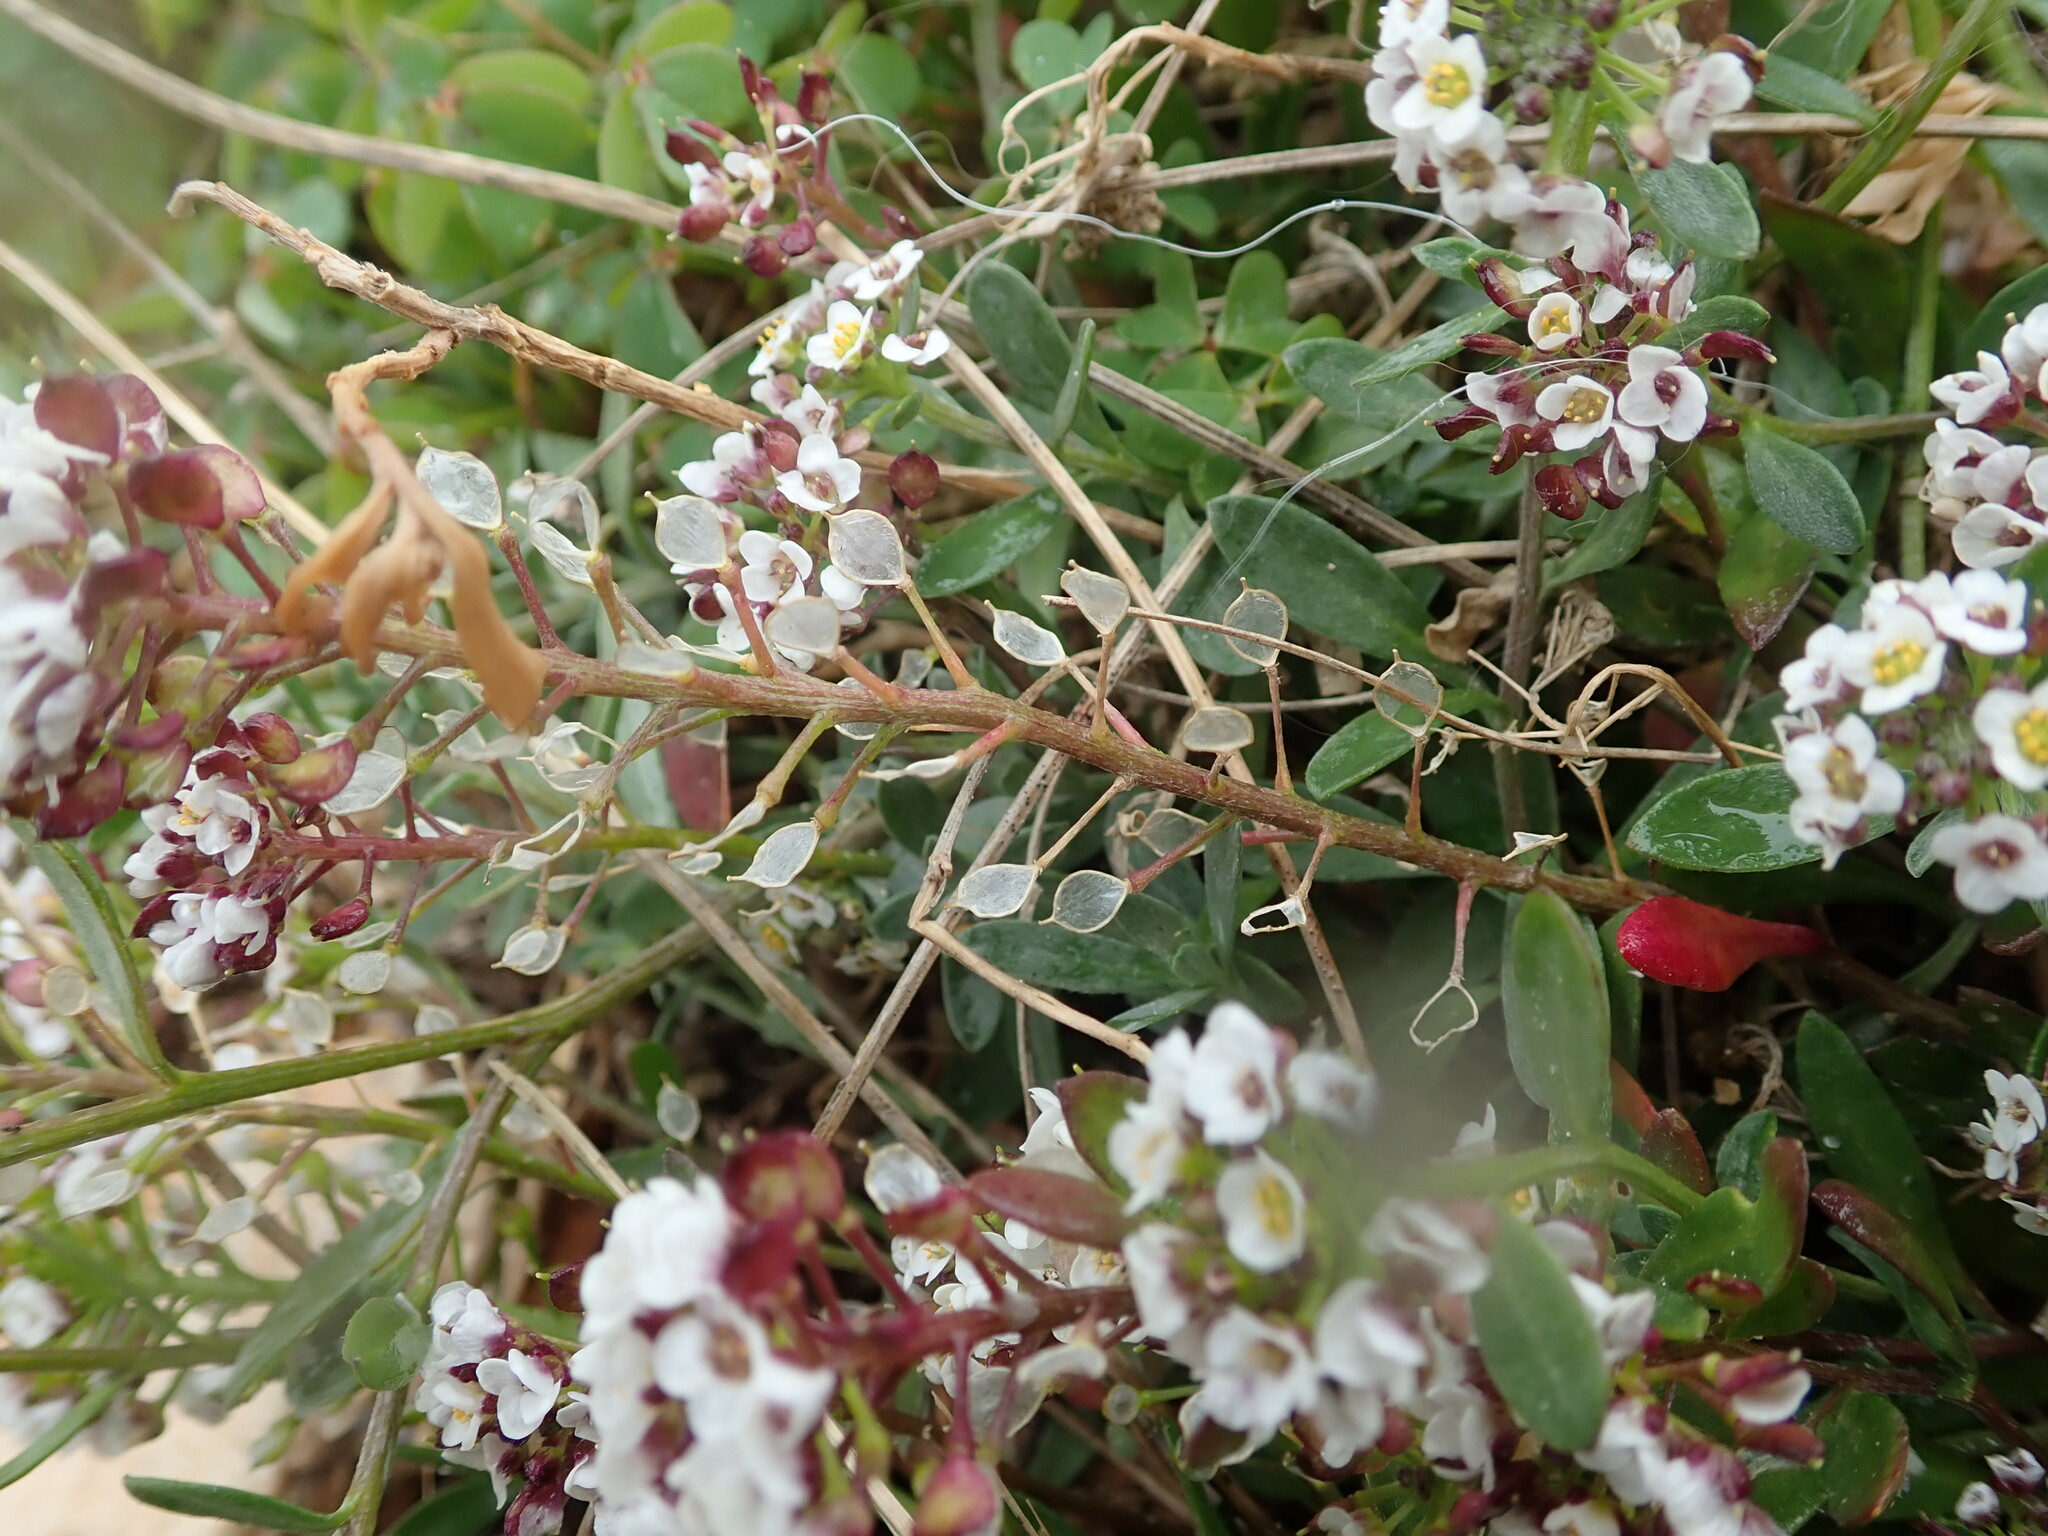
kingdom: Plantae
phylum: Tracheophyta
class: Magnoliopsida
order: Brassicales
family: Brassicaceae
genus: Lobularia
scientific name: Lobularia maritima
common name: Sweet alison
